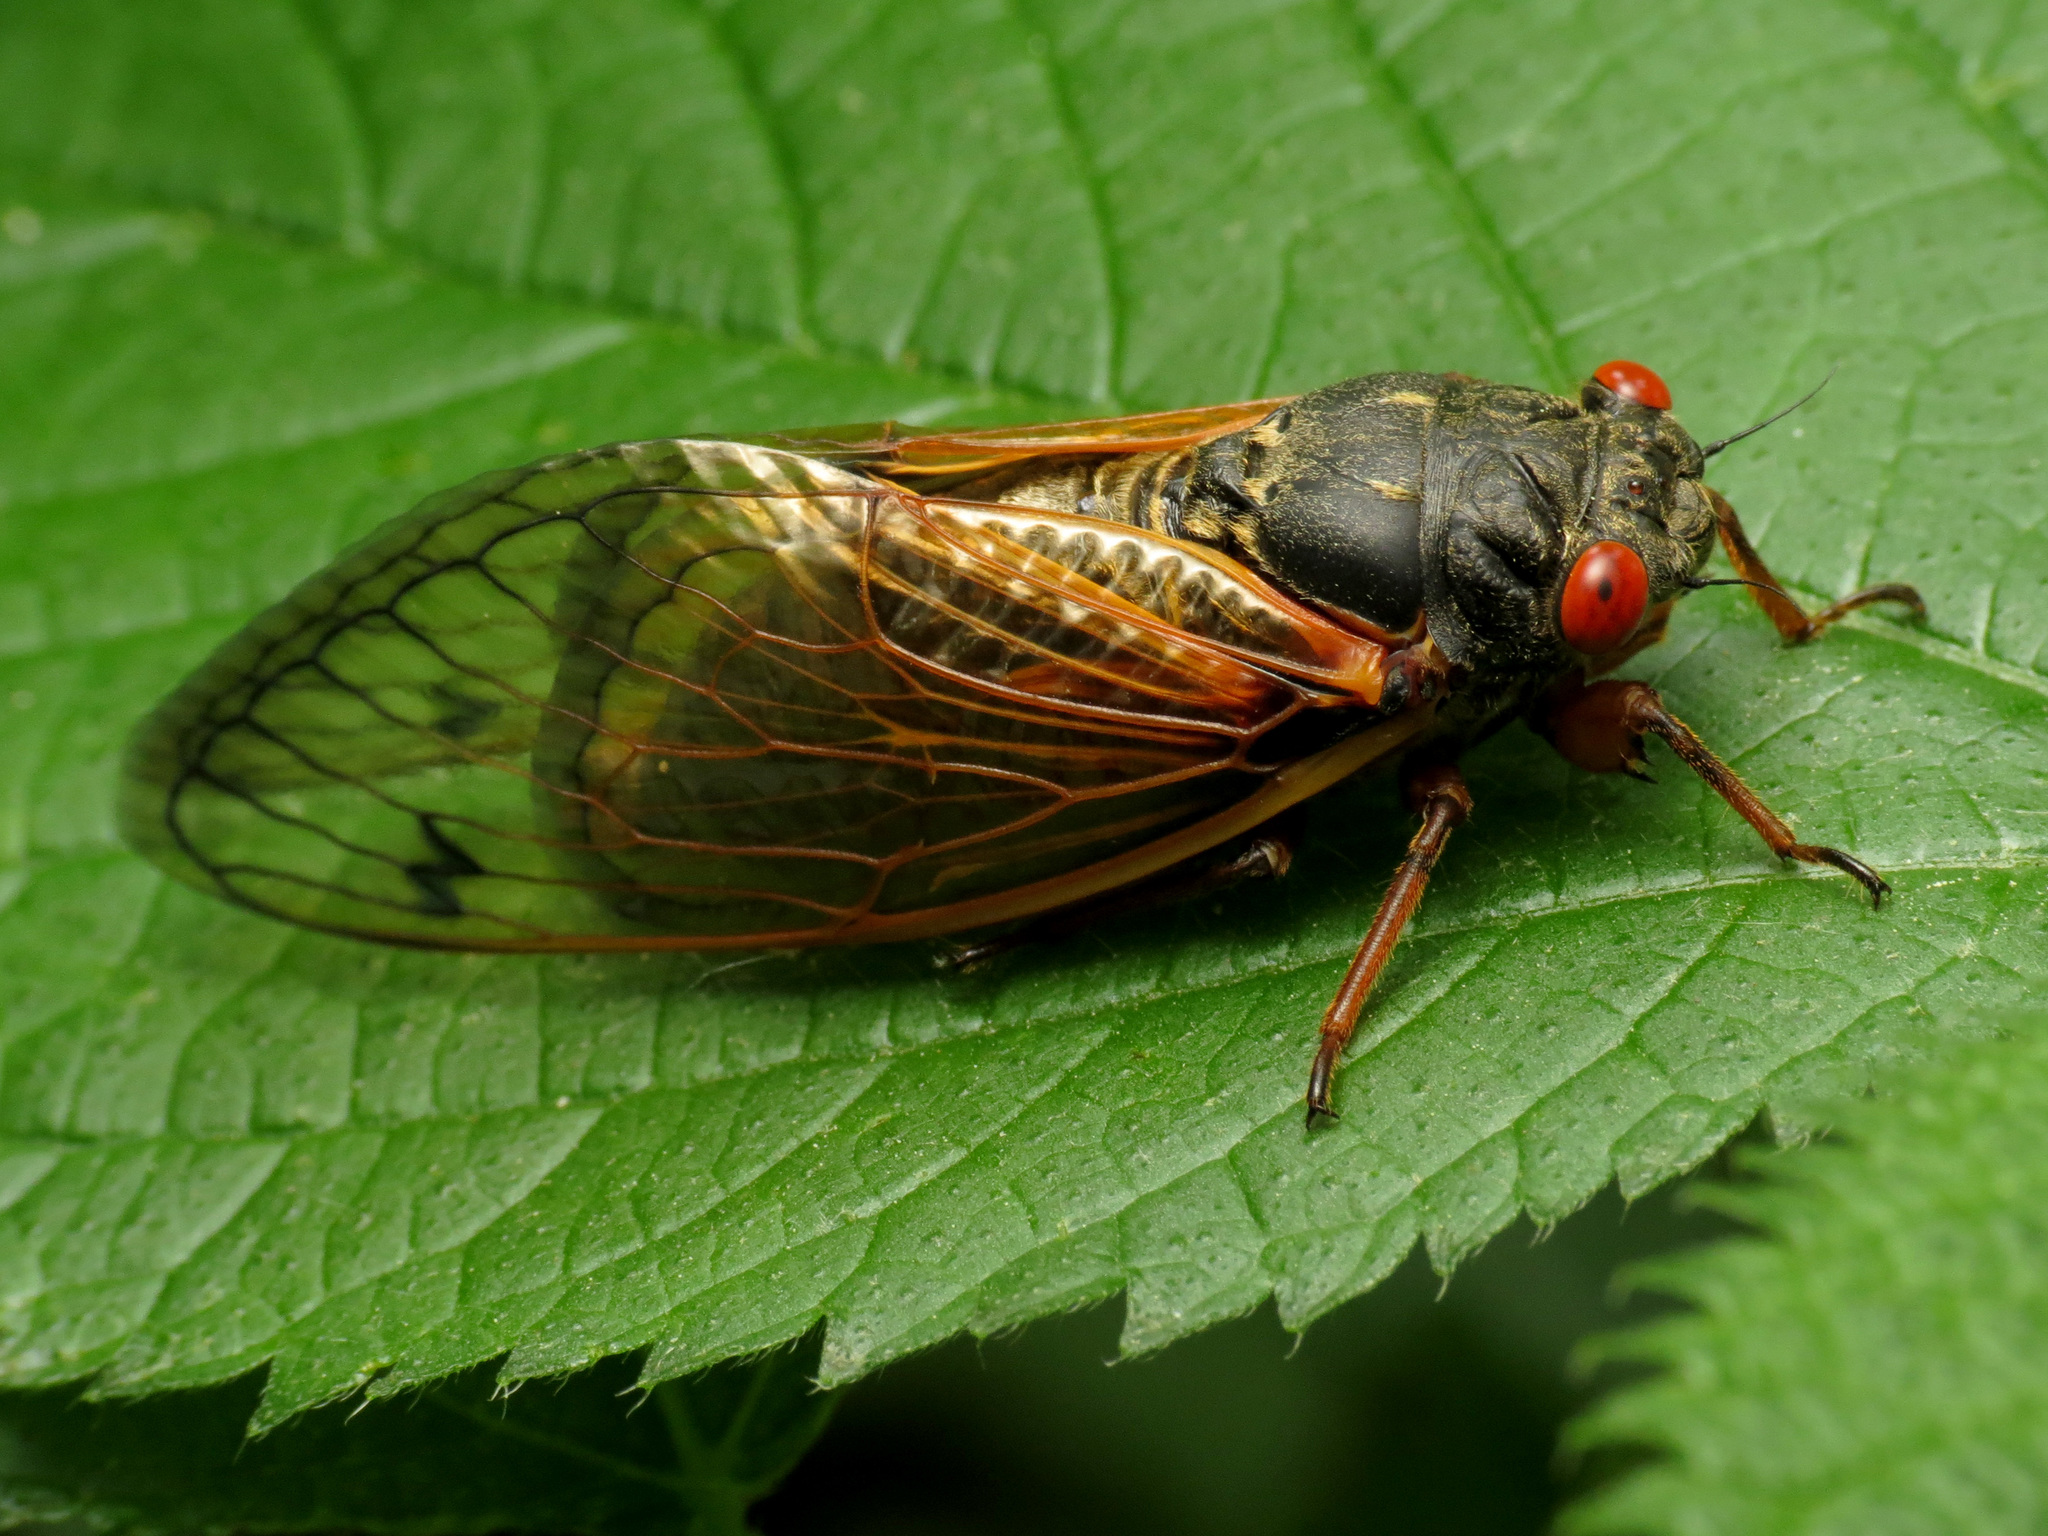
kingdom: Animalia
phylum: Arthropoda
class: Insecta
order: Hemiptera
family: Cicadidae
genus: Magicicada
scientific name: Magicicada
